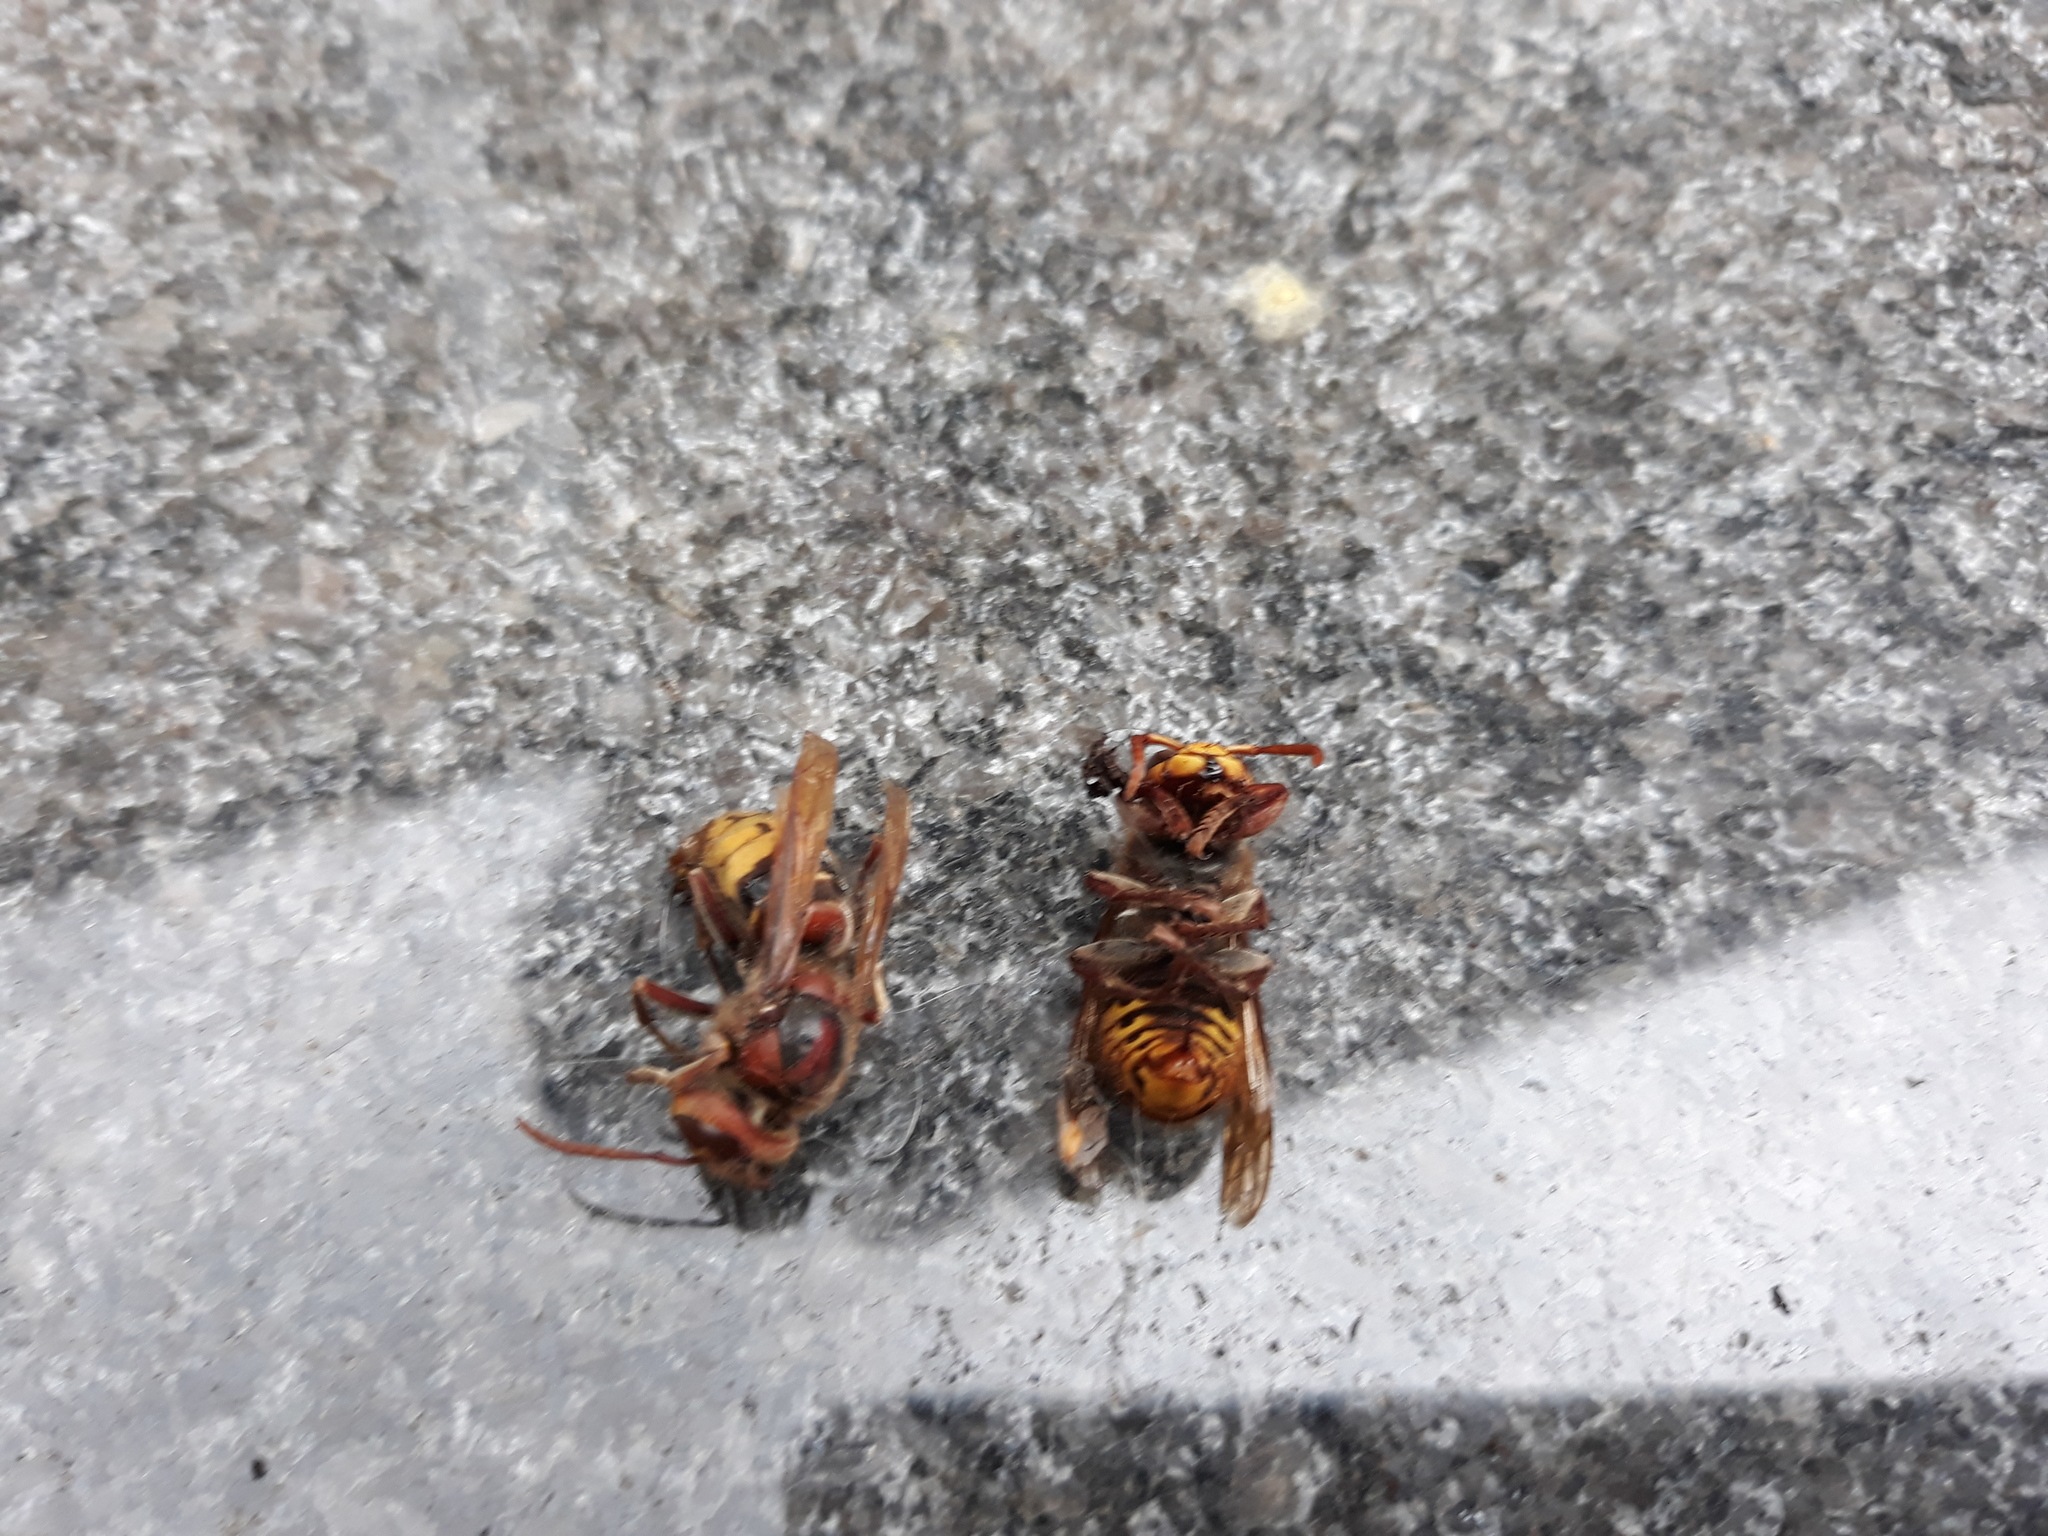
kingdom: Animalia
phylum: Arthropoda
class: Insecta
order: Hymenoptera
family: Vespidae
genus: Vespa
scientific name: Vespa crabro
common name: Hornet
